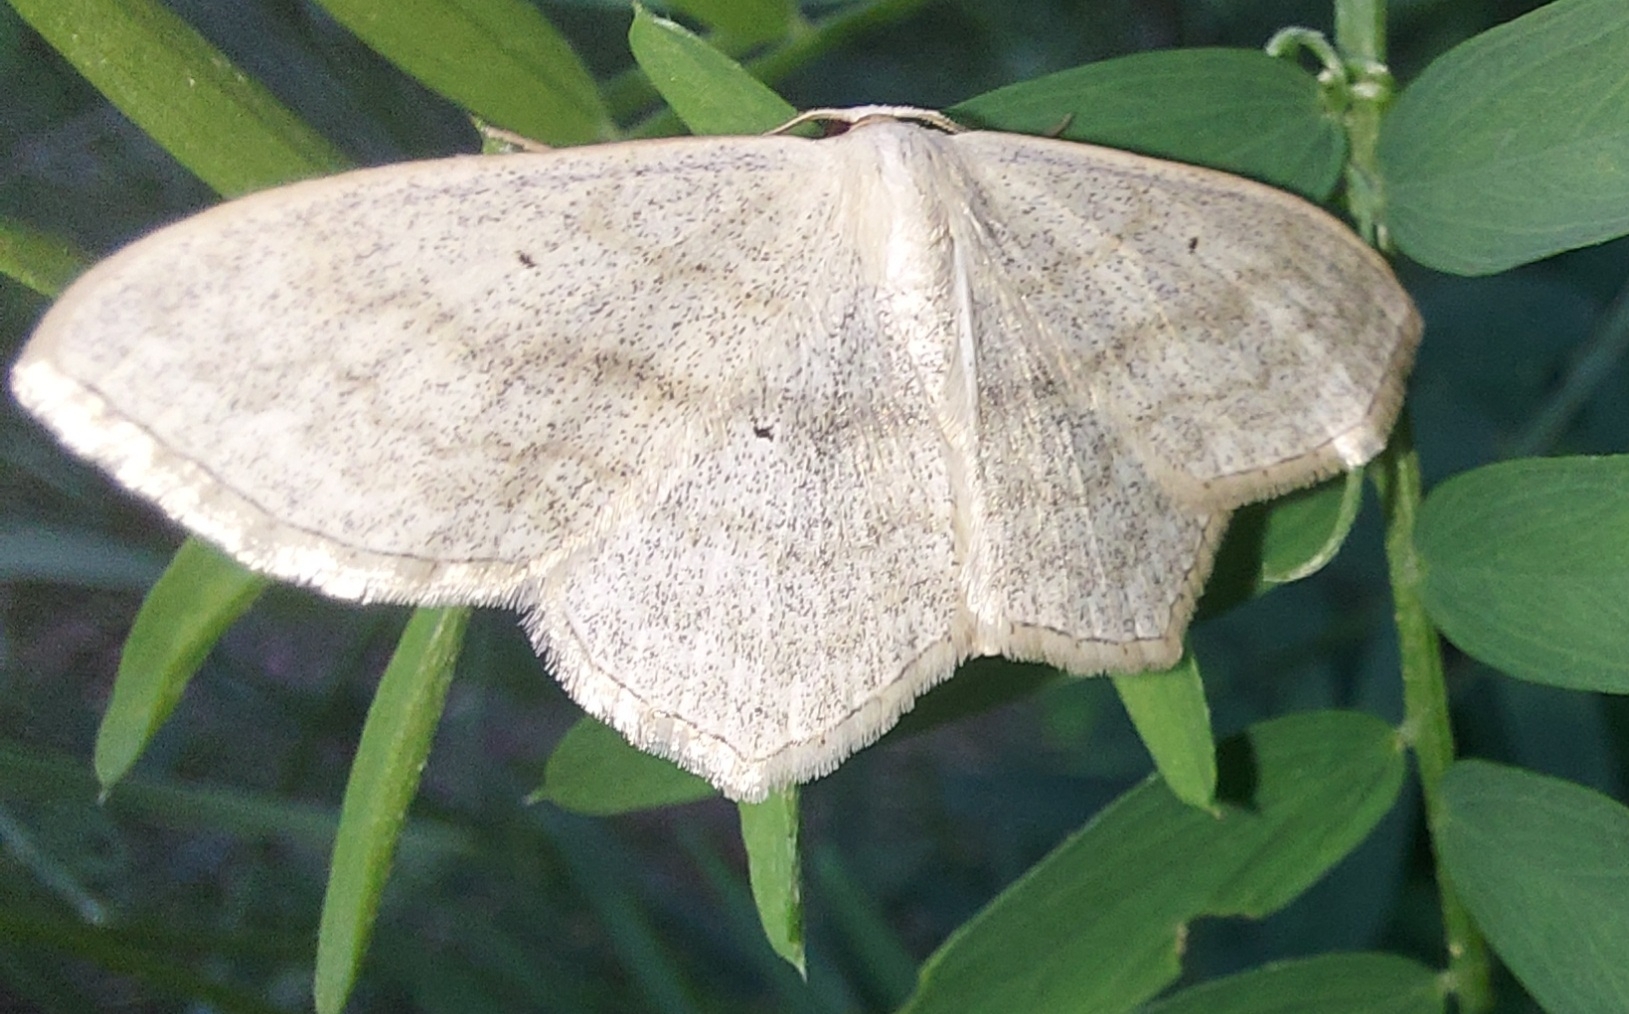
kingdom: Animalia
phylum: Arthropoda
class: Insecta
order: Lepidoptera
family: Geometridae
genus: Scopula
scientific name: Scopula nigropunctata
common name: Sub-angled wave
